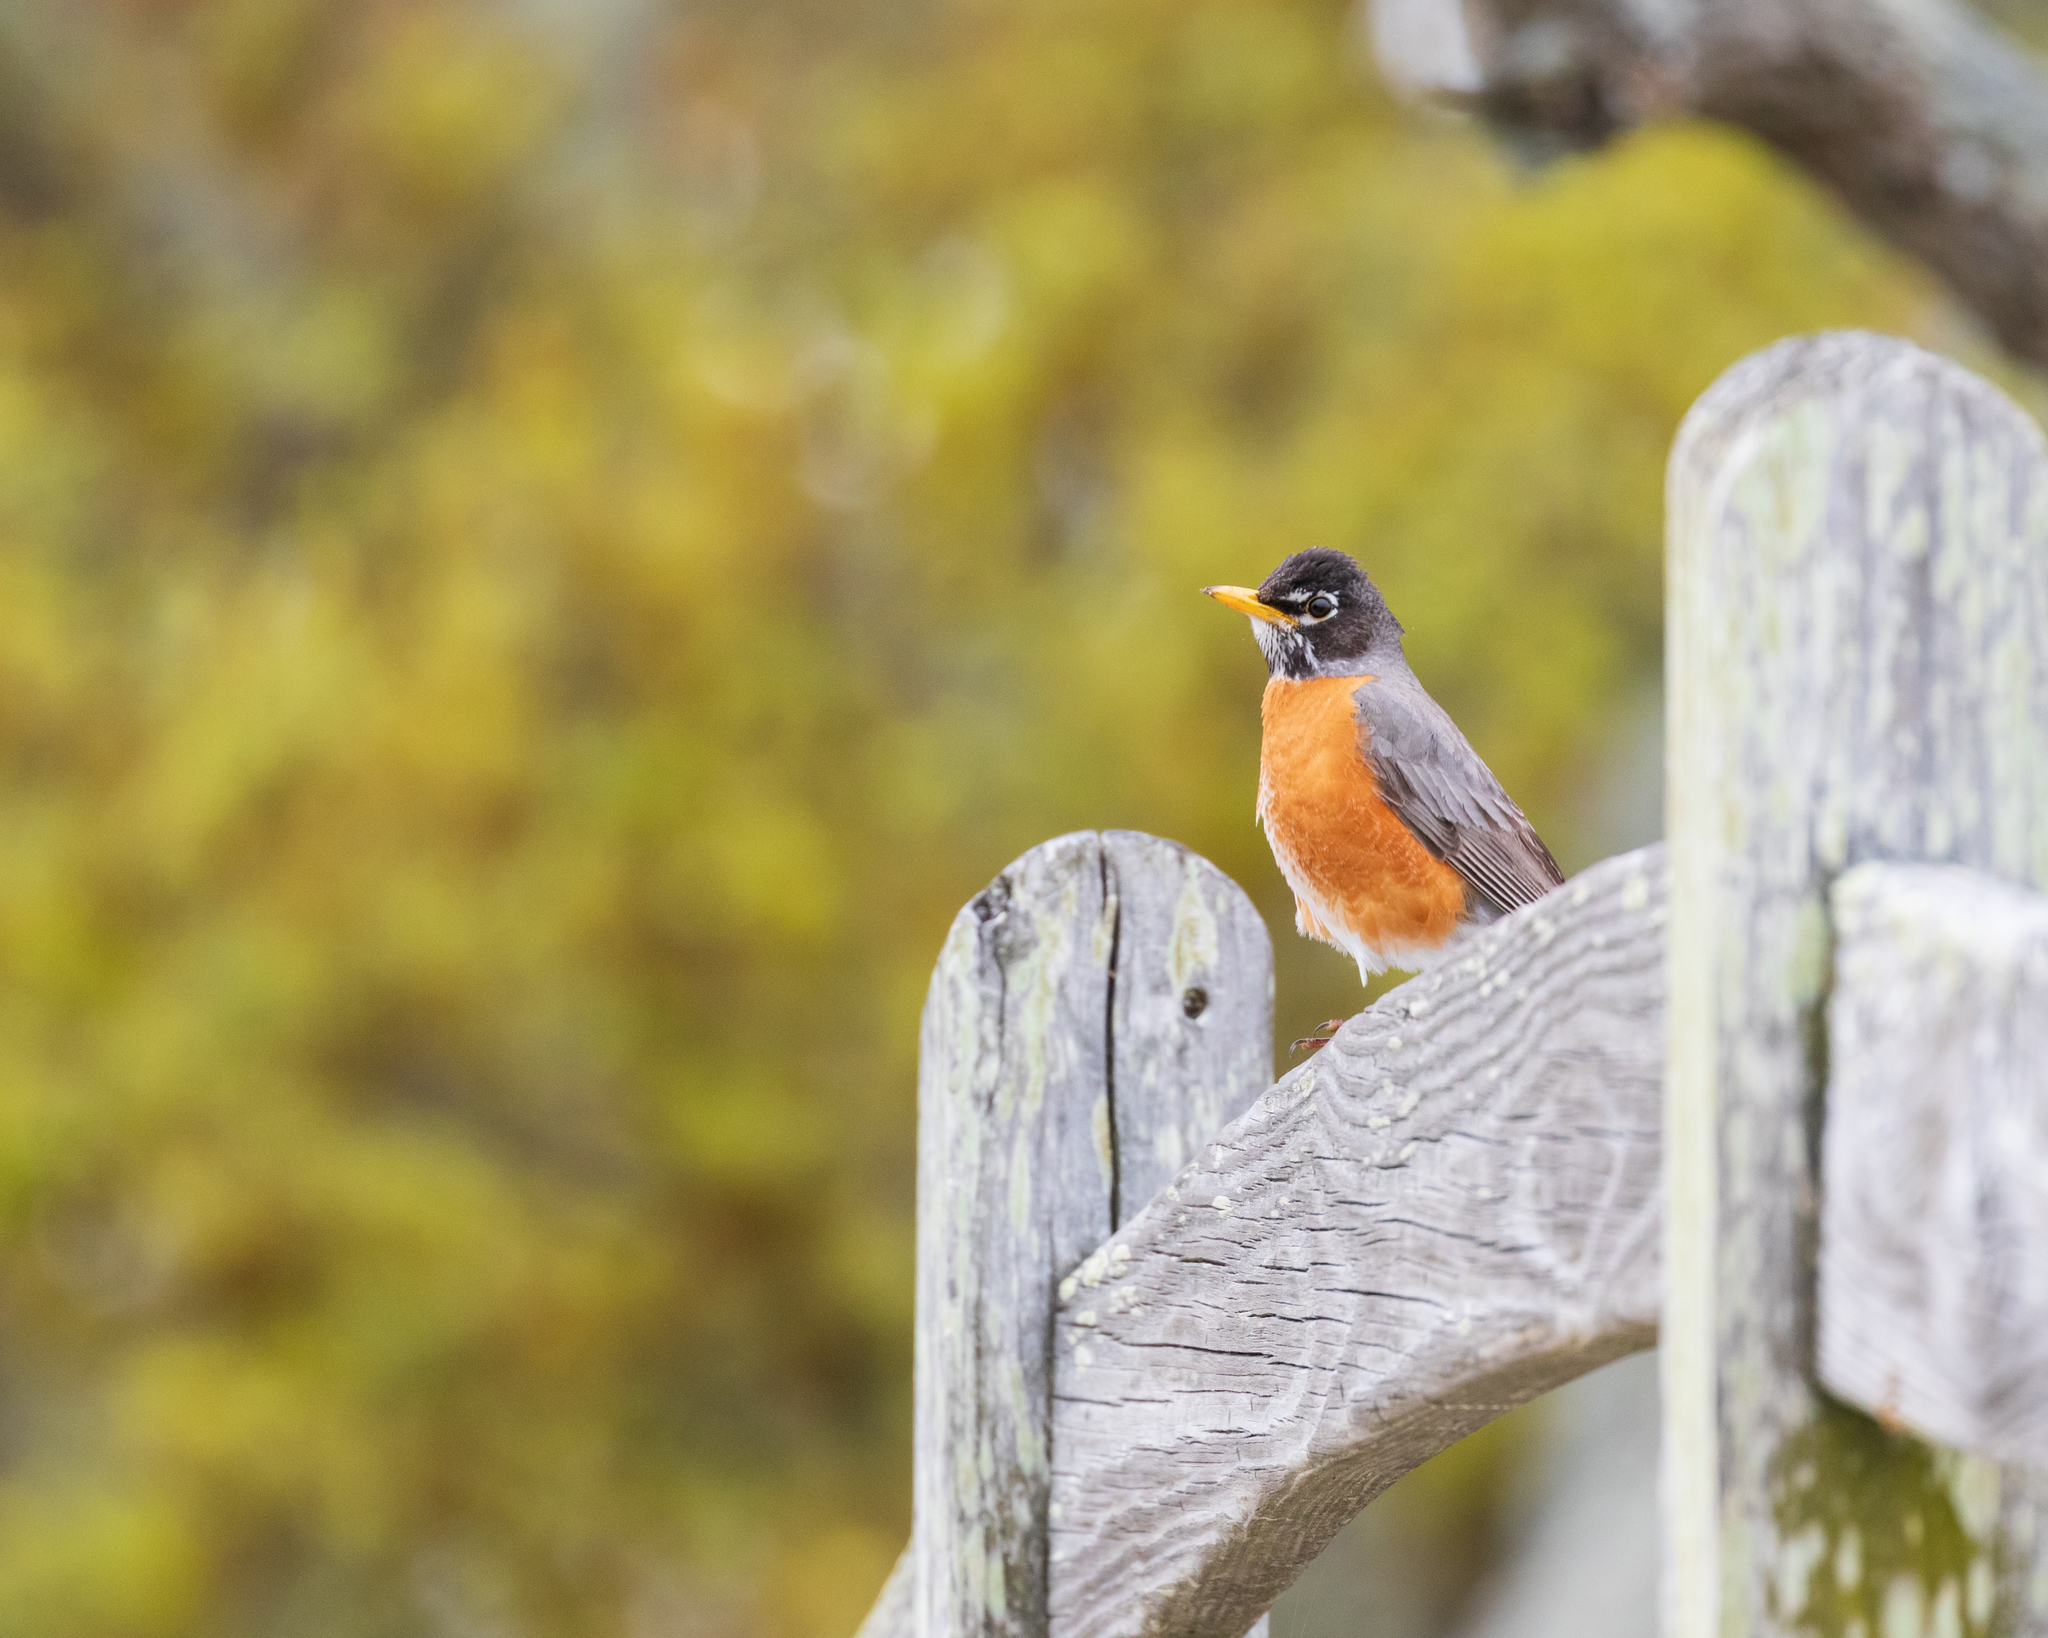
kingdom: Animalia
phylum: Chordata
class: Aves
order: Passeriformes
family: Turdidae
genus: Turdus
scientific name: Turdus migratorius
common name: American robin
